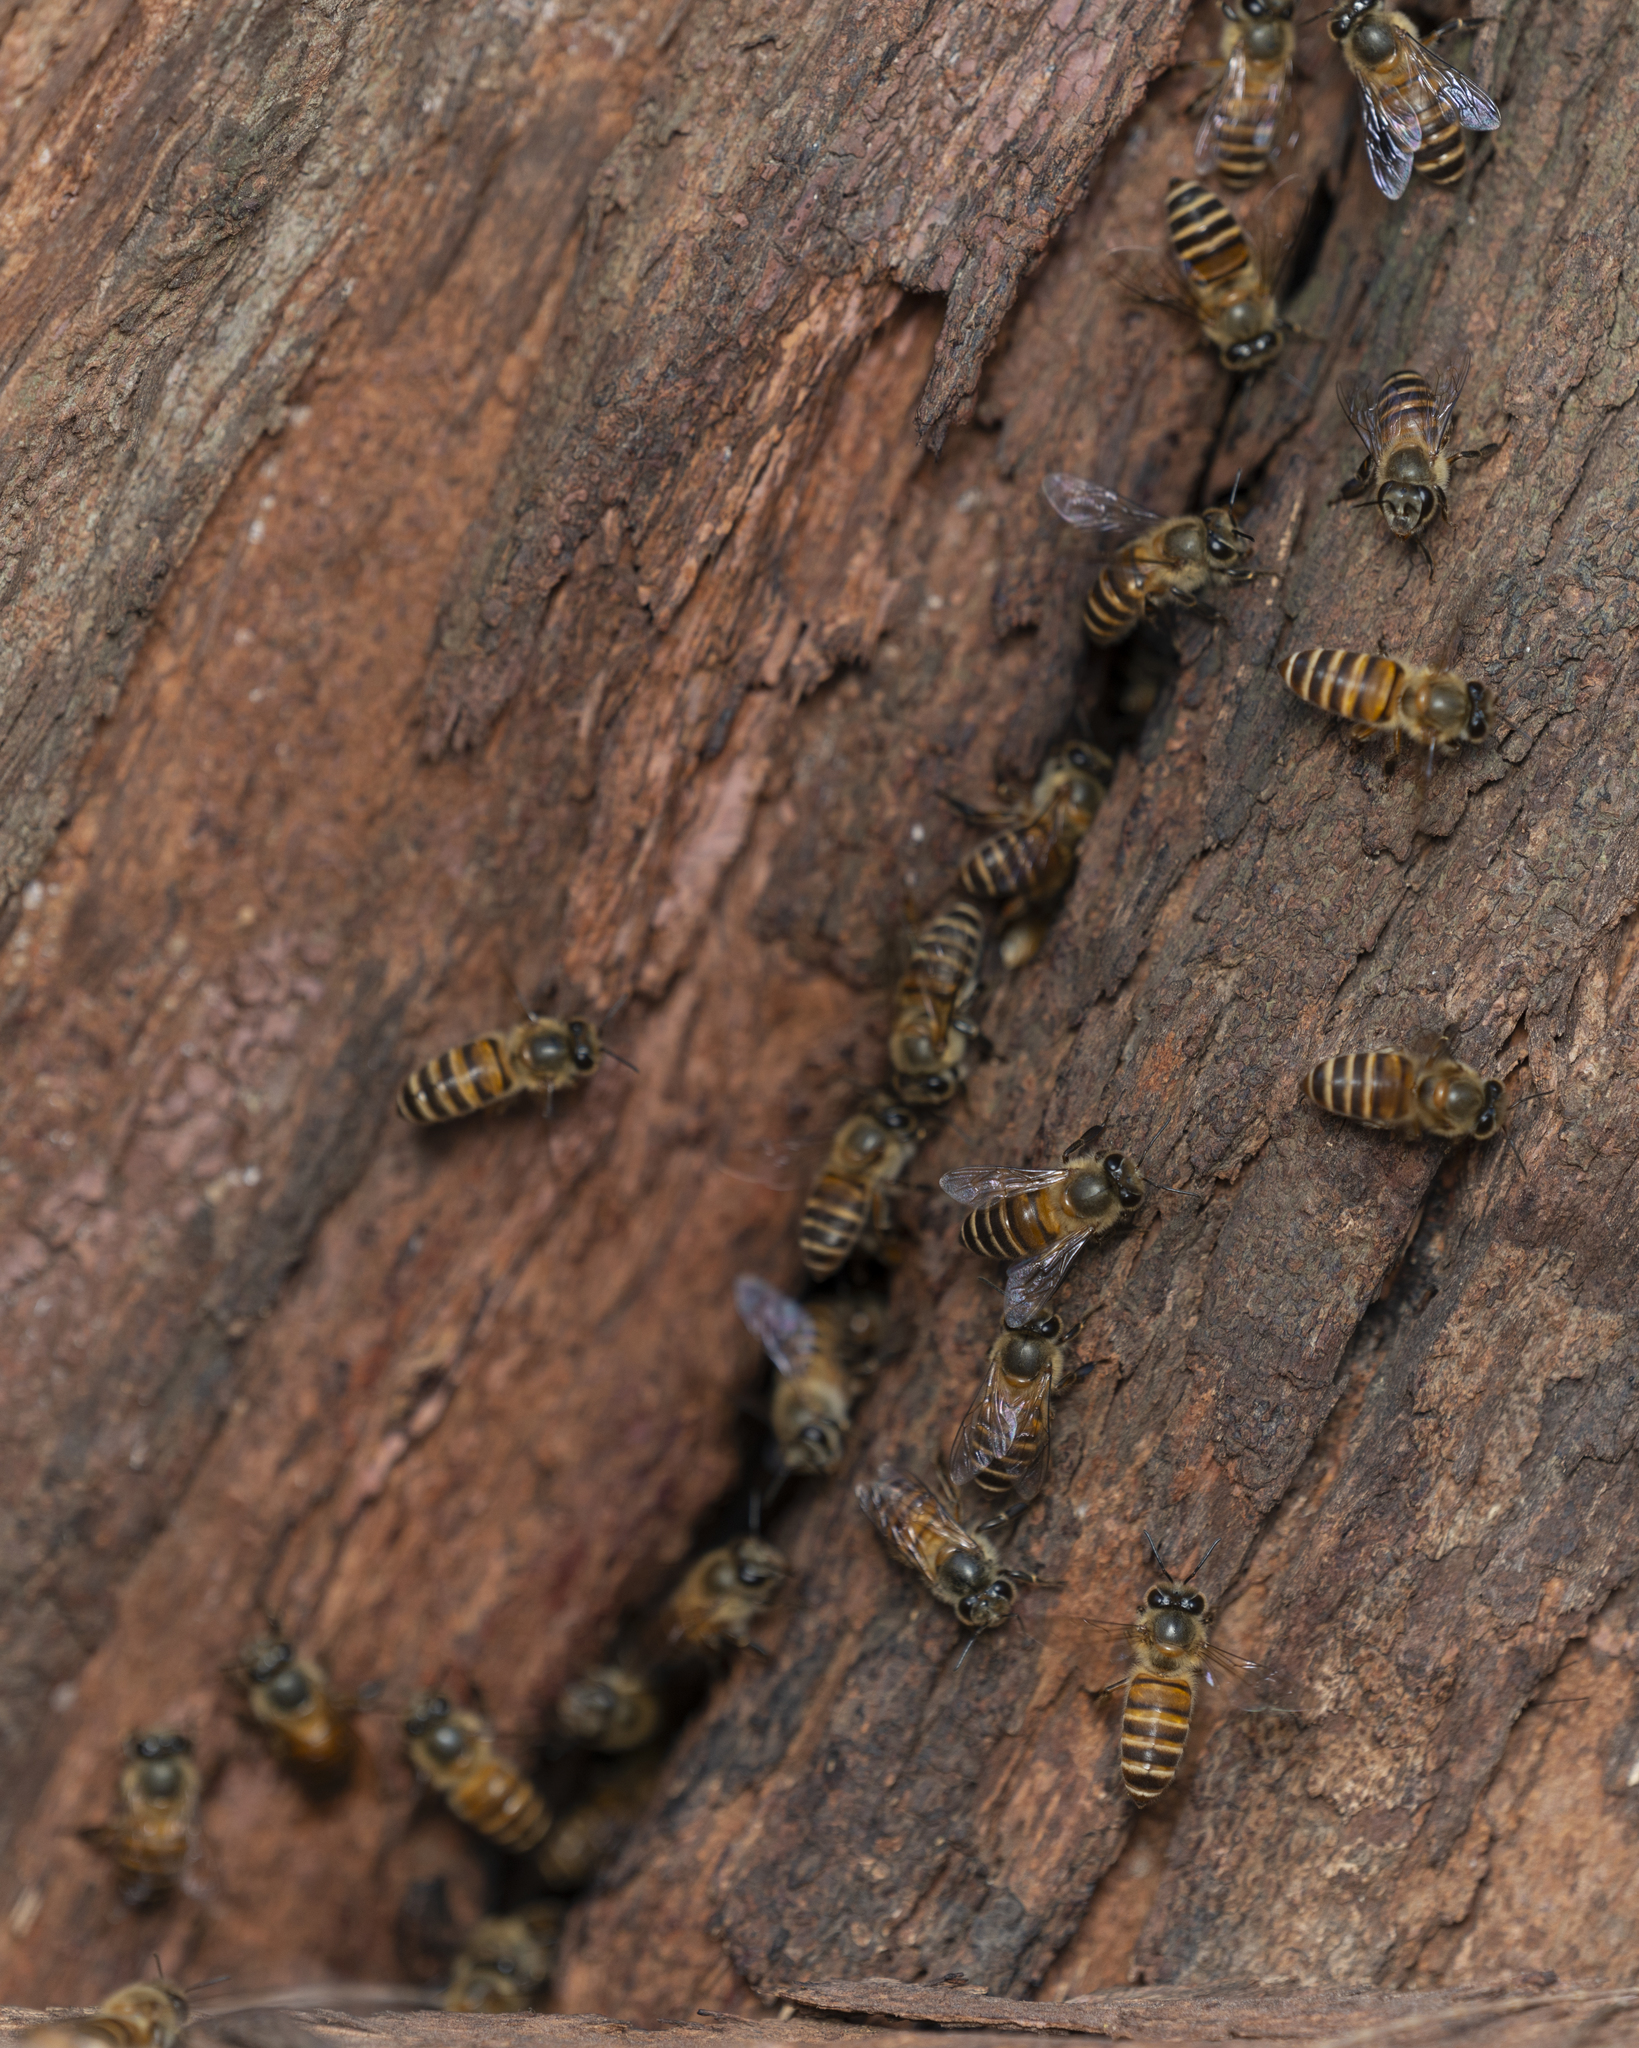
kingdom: Animalia
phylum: Arthropoda
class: Insecta
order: Hymenoptera
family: Apidae
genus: Apis
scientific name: Apis cerana
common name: Honey bee
